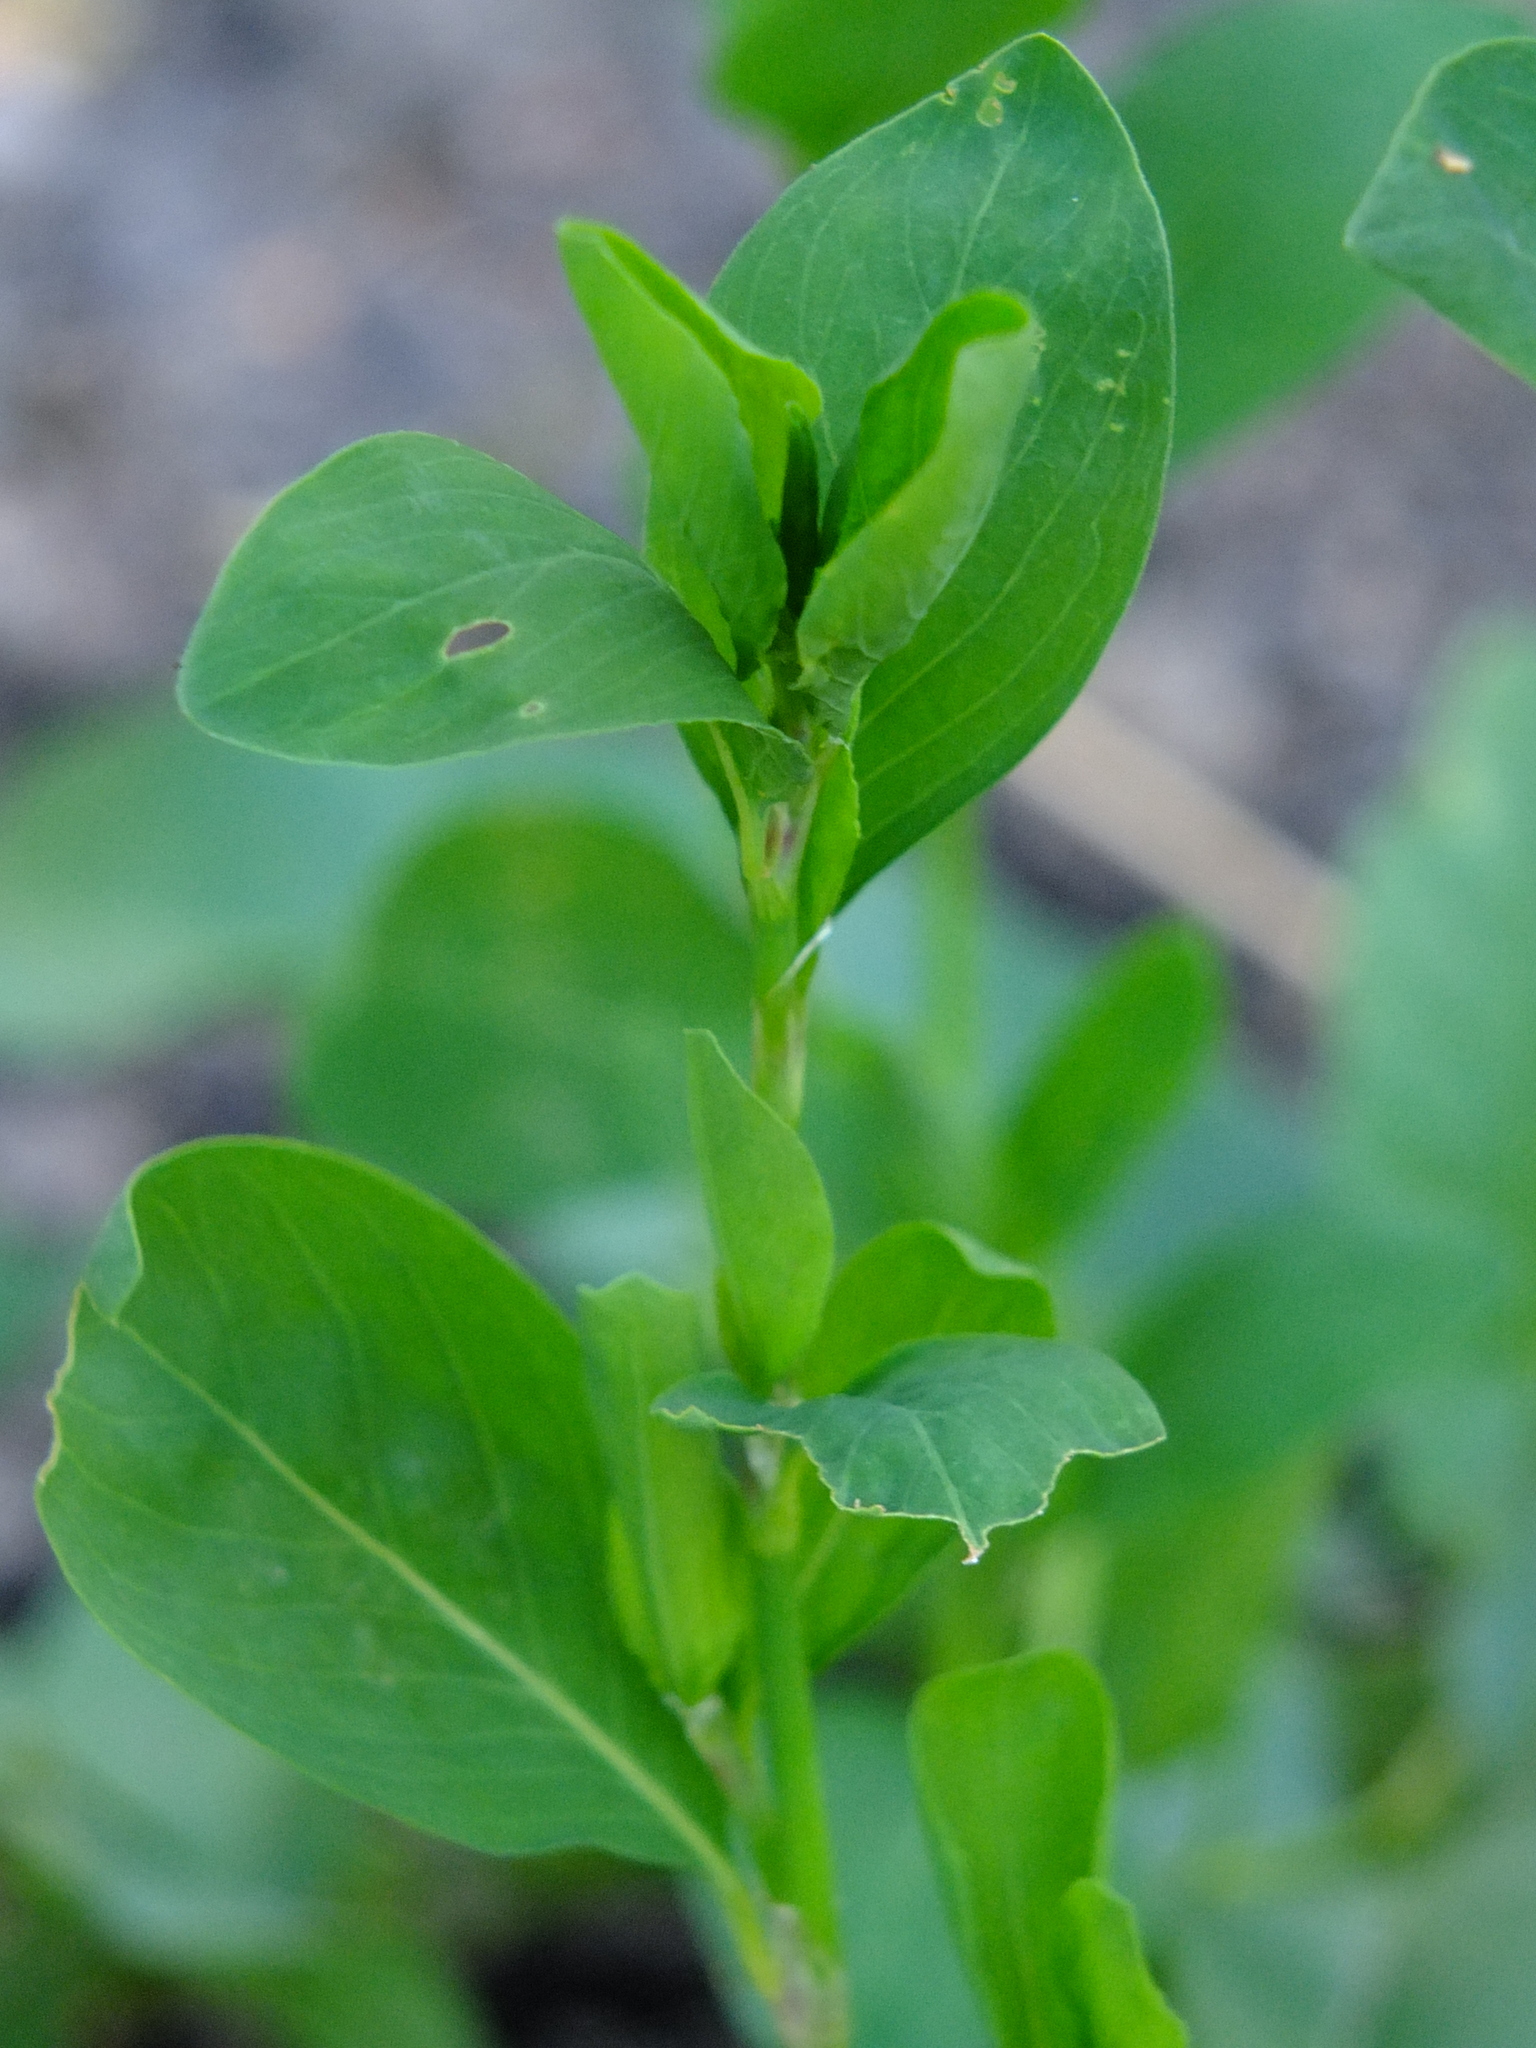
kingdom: Plantae
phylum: Tracheophyta
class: Magnoliopsida
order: Caryophyllales
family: Polygonaceae
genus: Polygonum
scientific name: Polygonum
